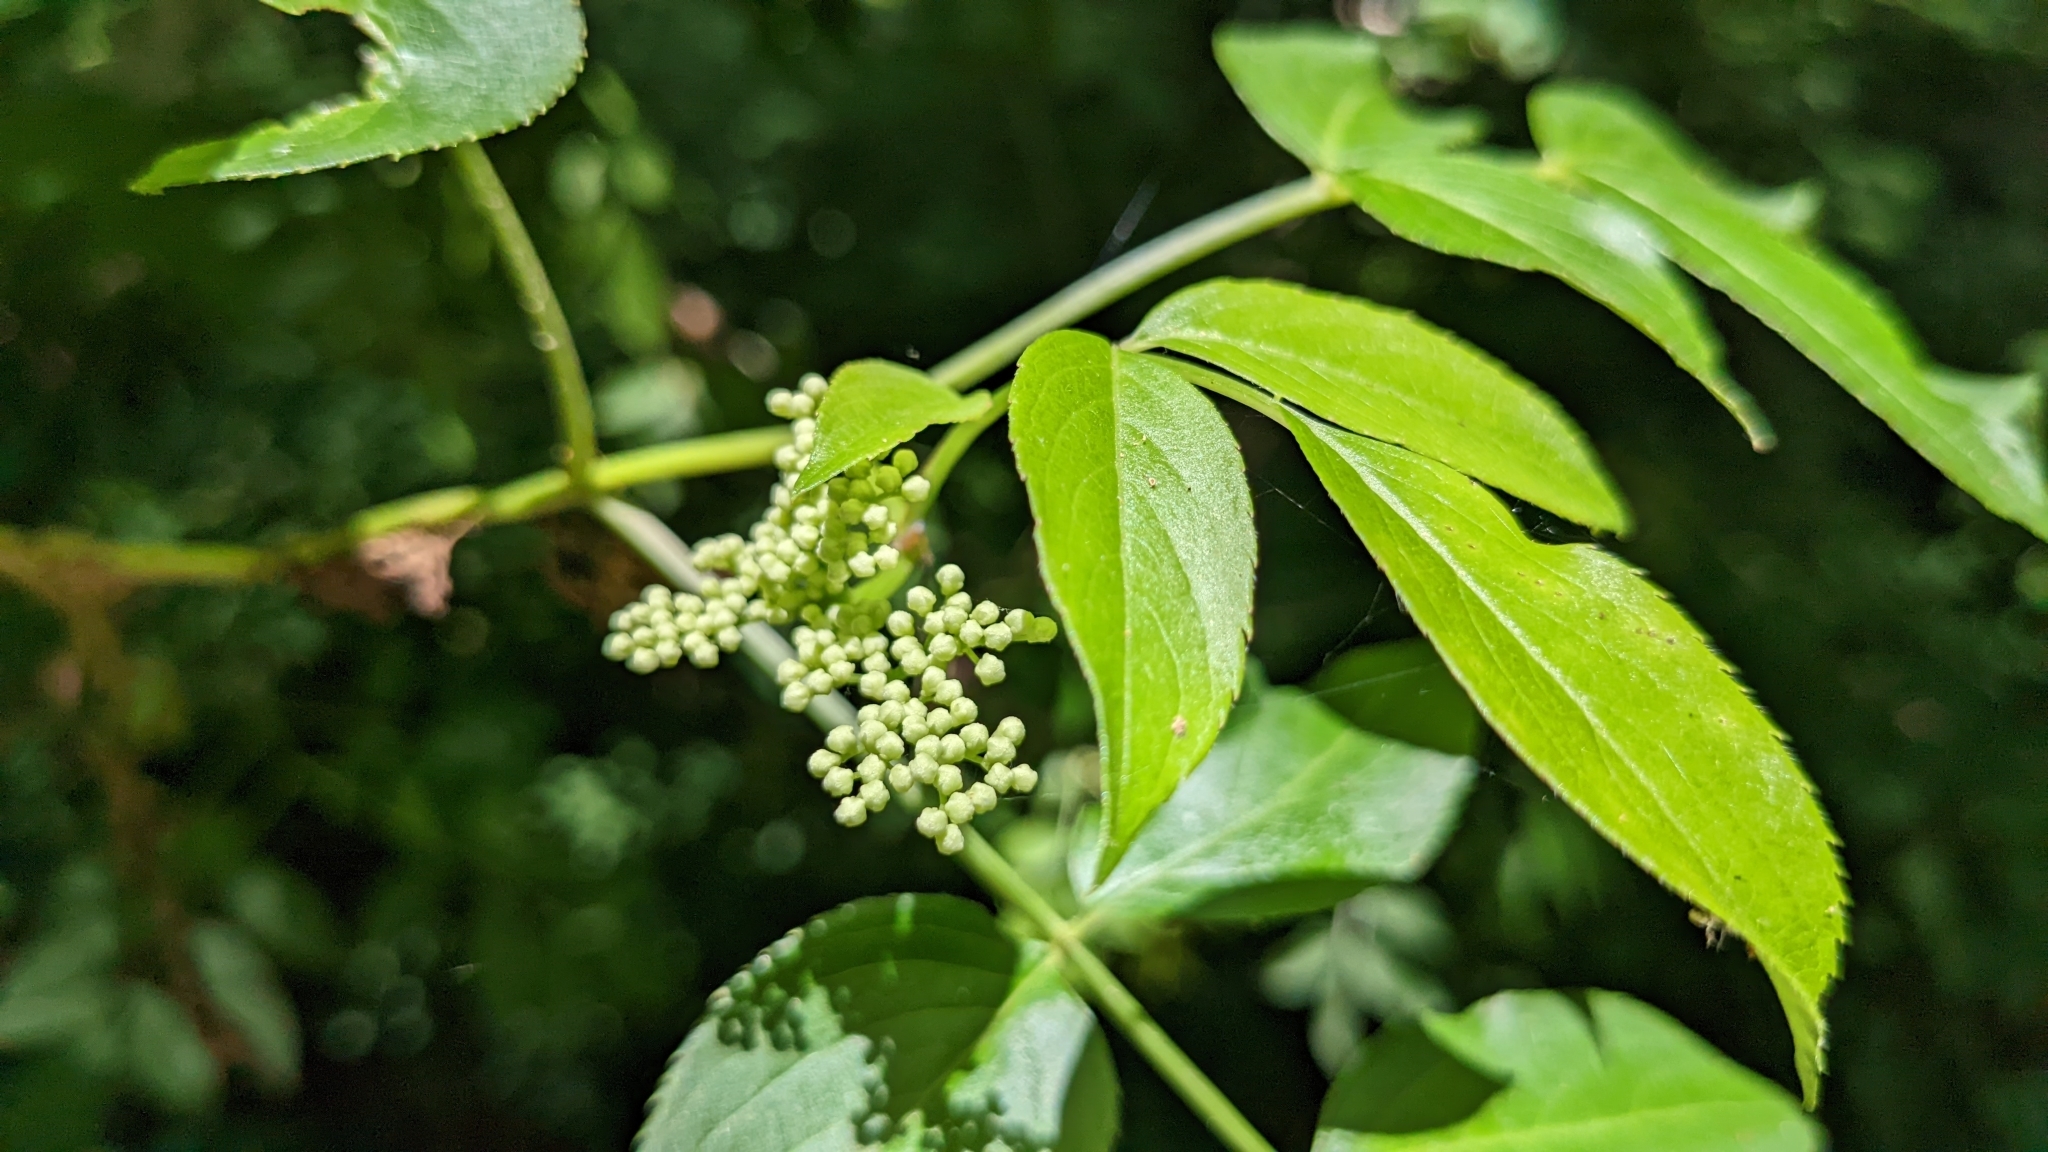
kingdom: Plantae
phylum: Tracheophyta
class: Magnoliopsida
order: Dipsacales
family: Viburnaceae
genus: Sambucus
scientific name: Sambucus canadensis
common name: American elder
